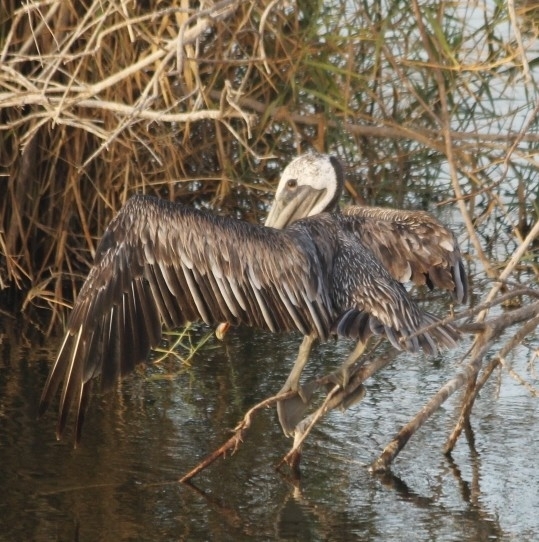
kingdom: Animalia
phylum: Chordata
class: Aves
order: Pelecaniformes
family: Pelecanidae
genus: Pelecanus
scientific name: Pelecanus occidentalis
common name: Brown pelican
